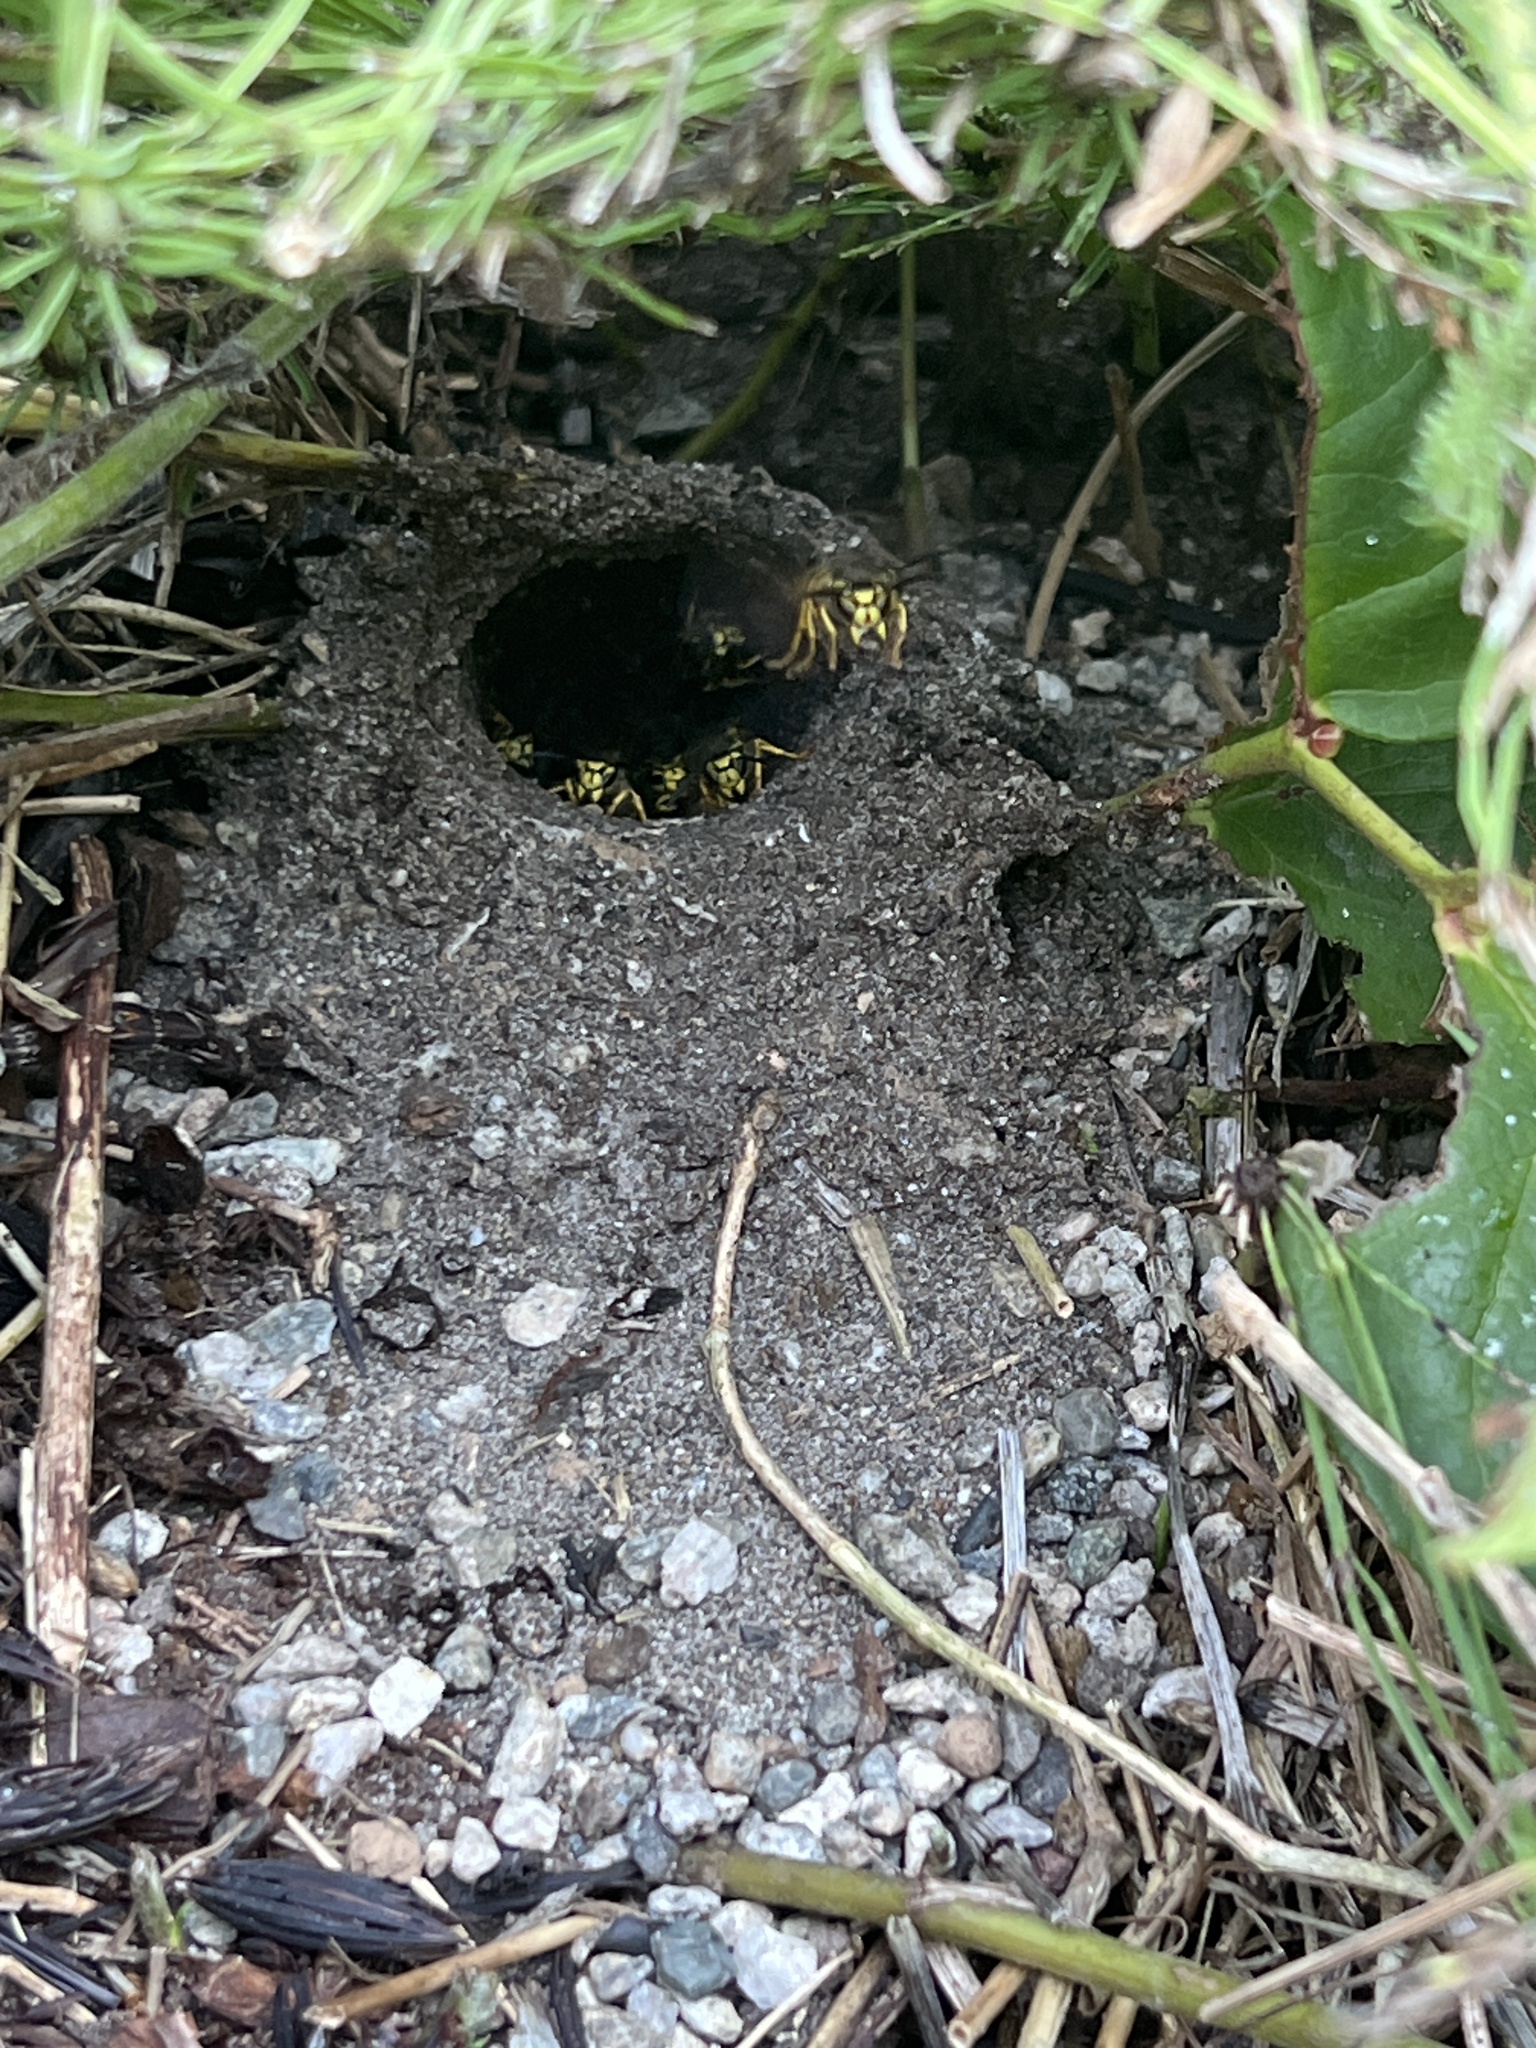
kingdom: Animalia
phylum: Arthropoda
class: Insecta
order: Hymenoptera
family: Vespidae
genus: Vespula
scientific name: Vespula
